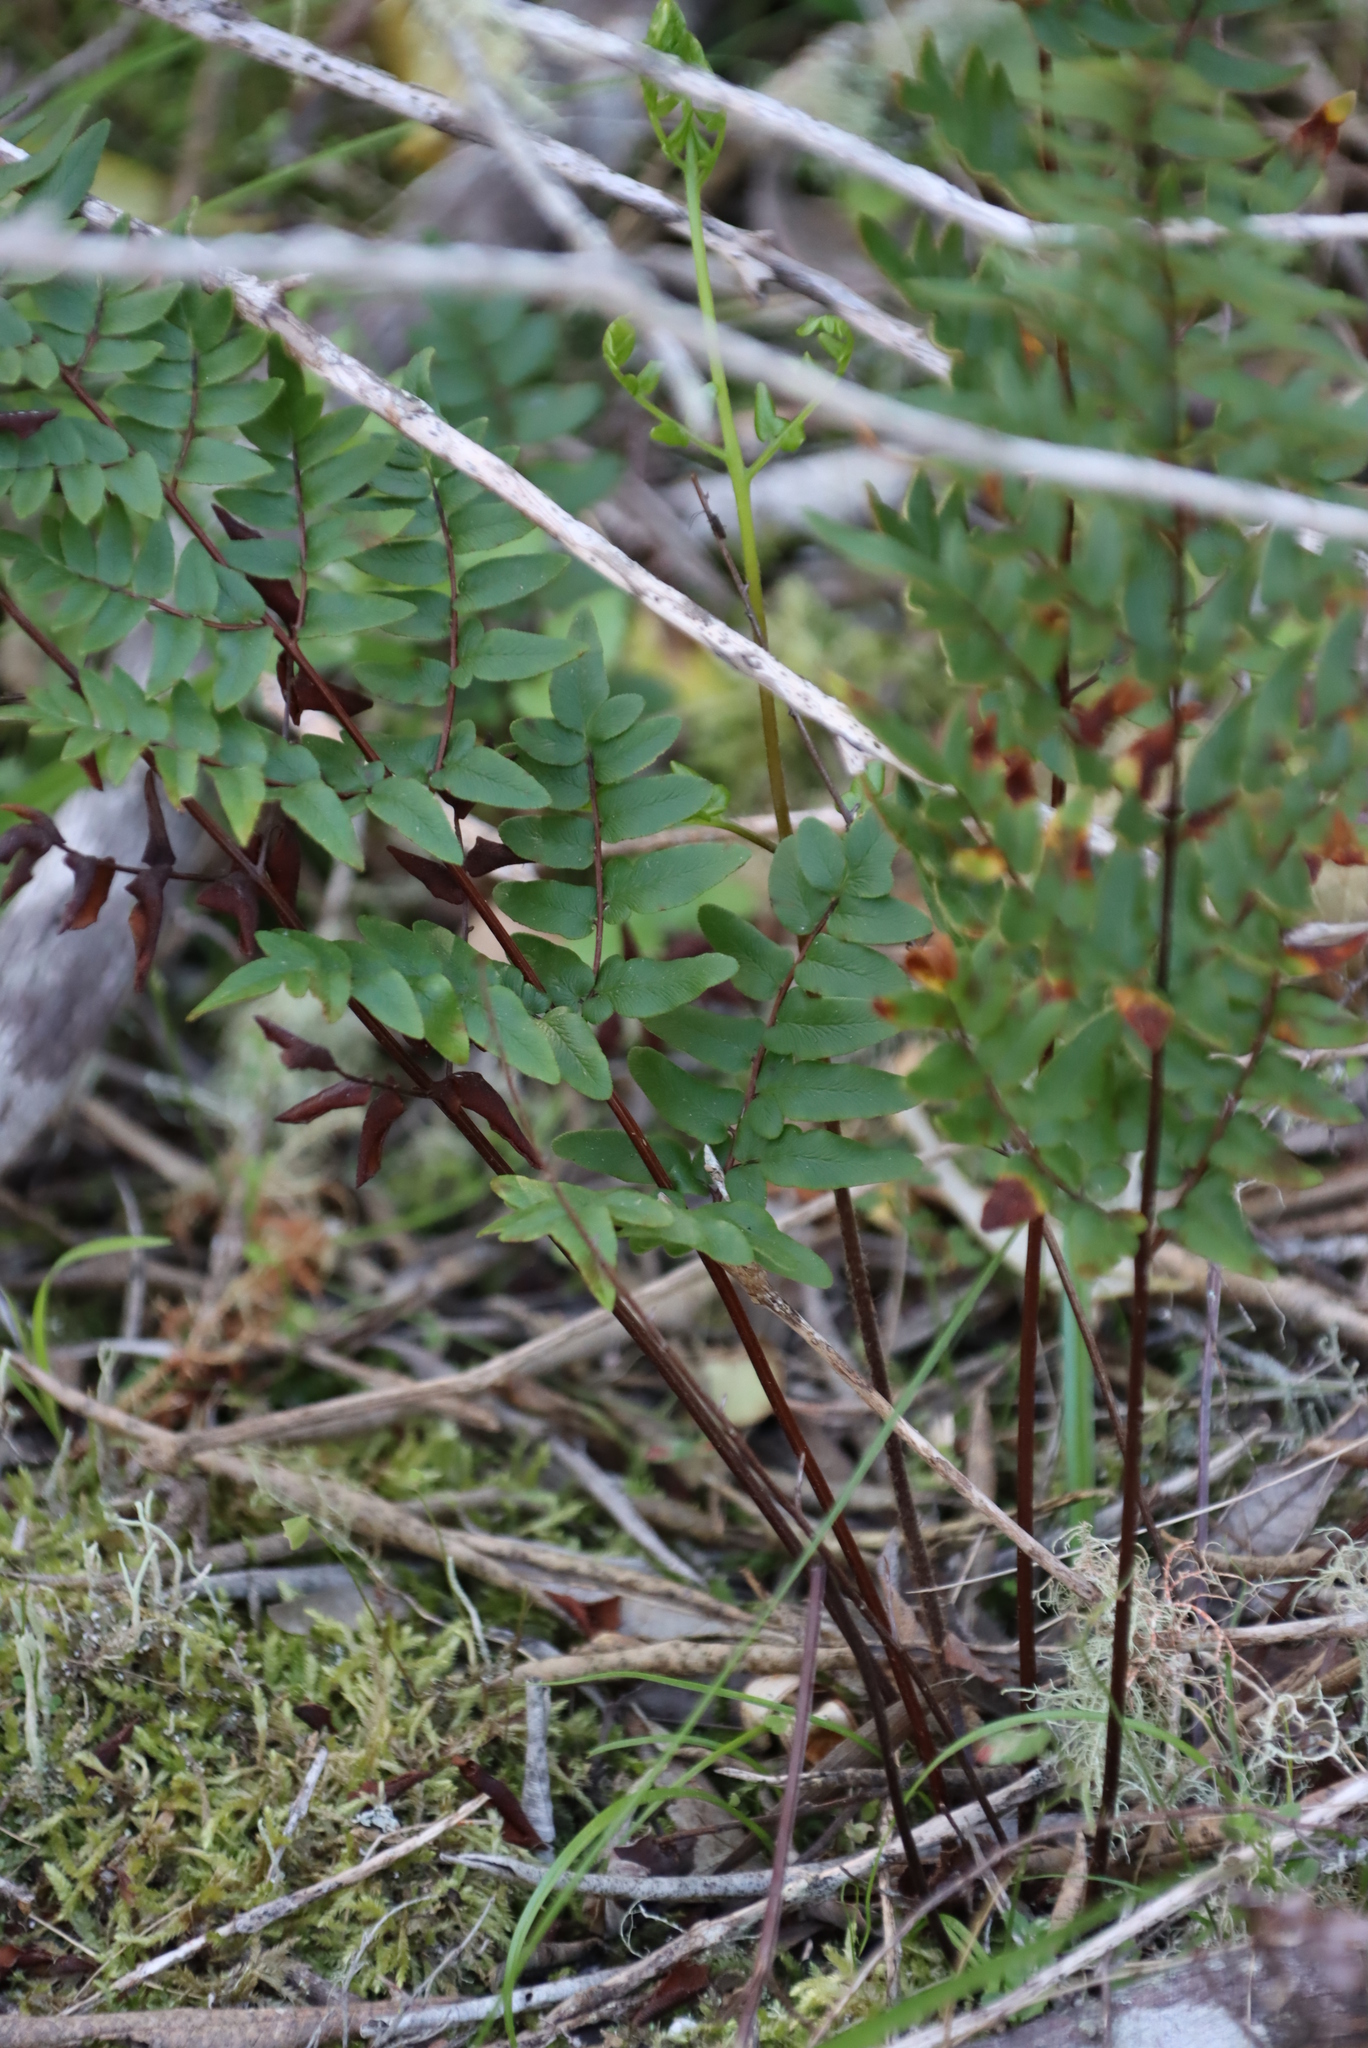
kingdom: Plantae
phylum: Tracheophyta
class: Polypodiopsida
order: Polypodiales
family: Pteridaceae
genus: Cheilanthes
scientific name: Cheilanthes viridis
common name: Green cliffbrake
